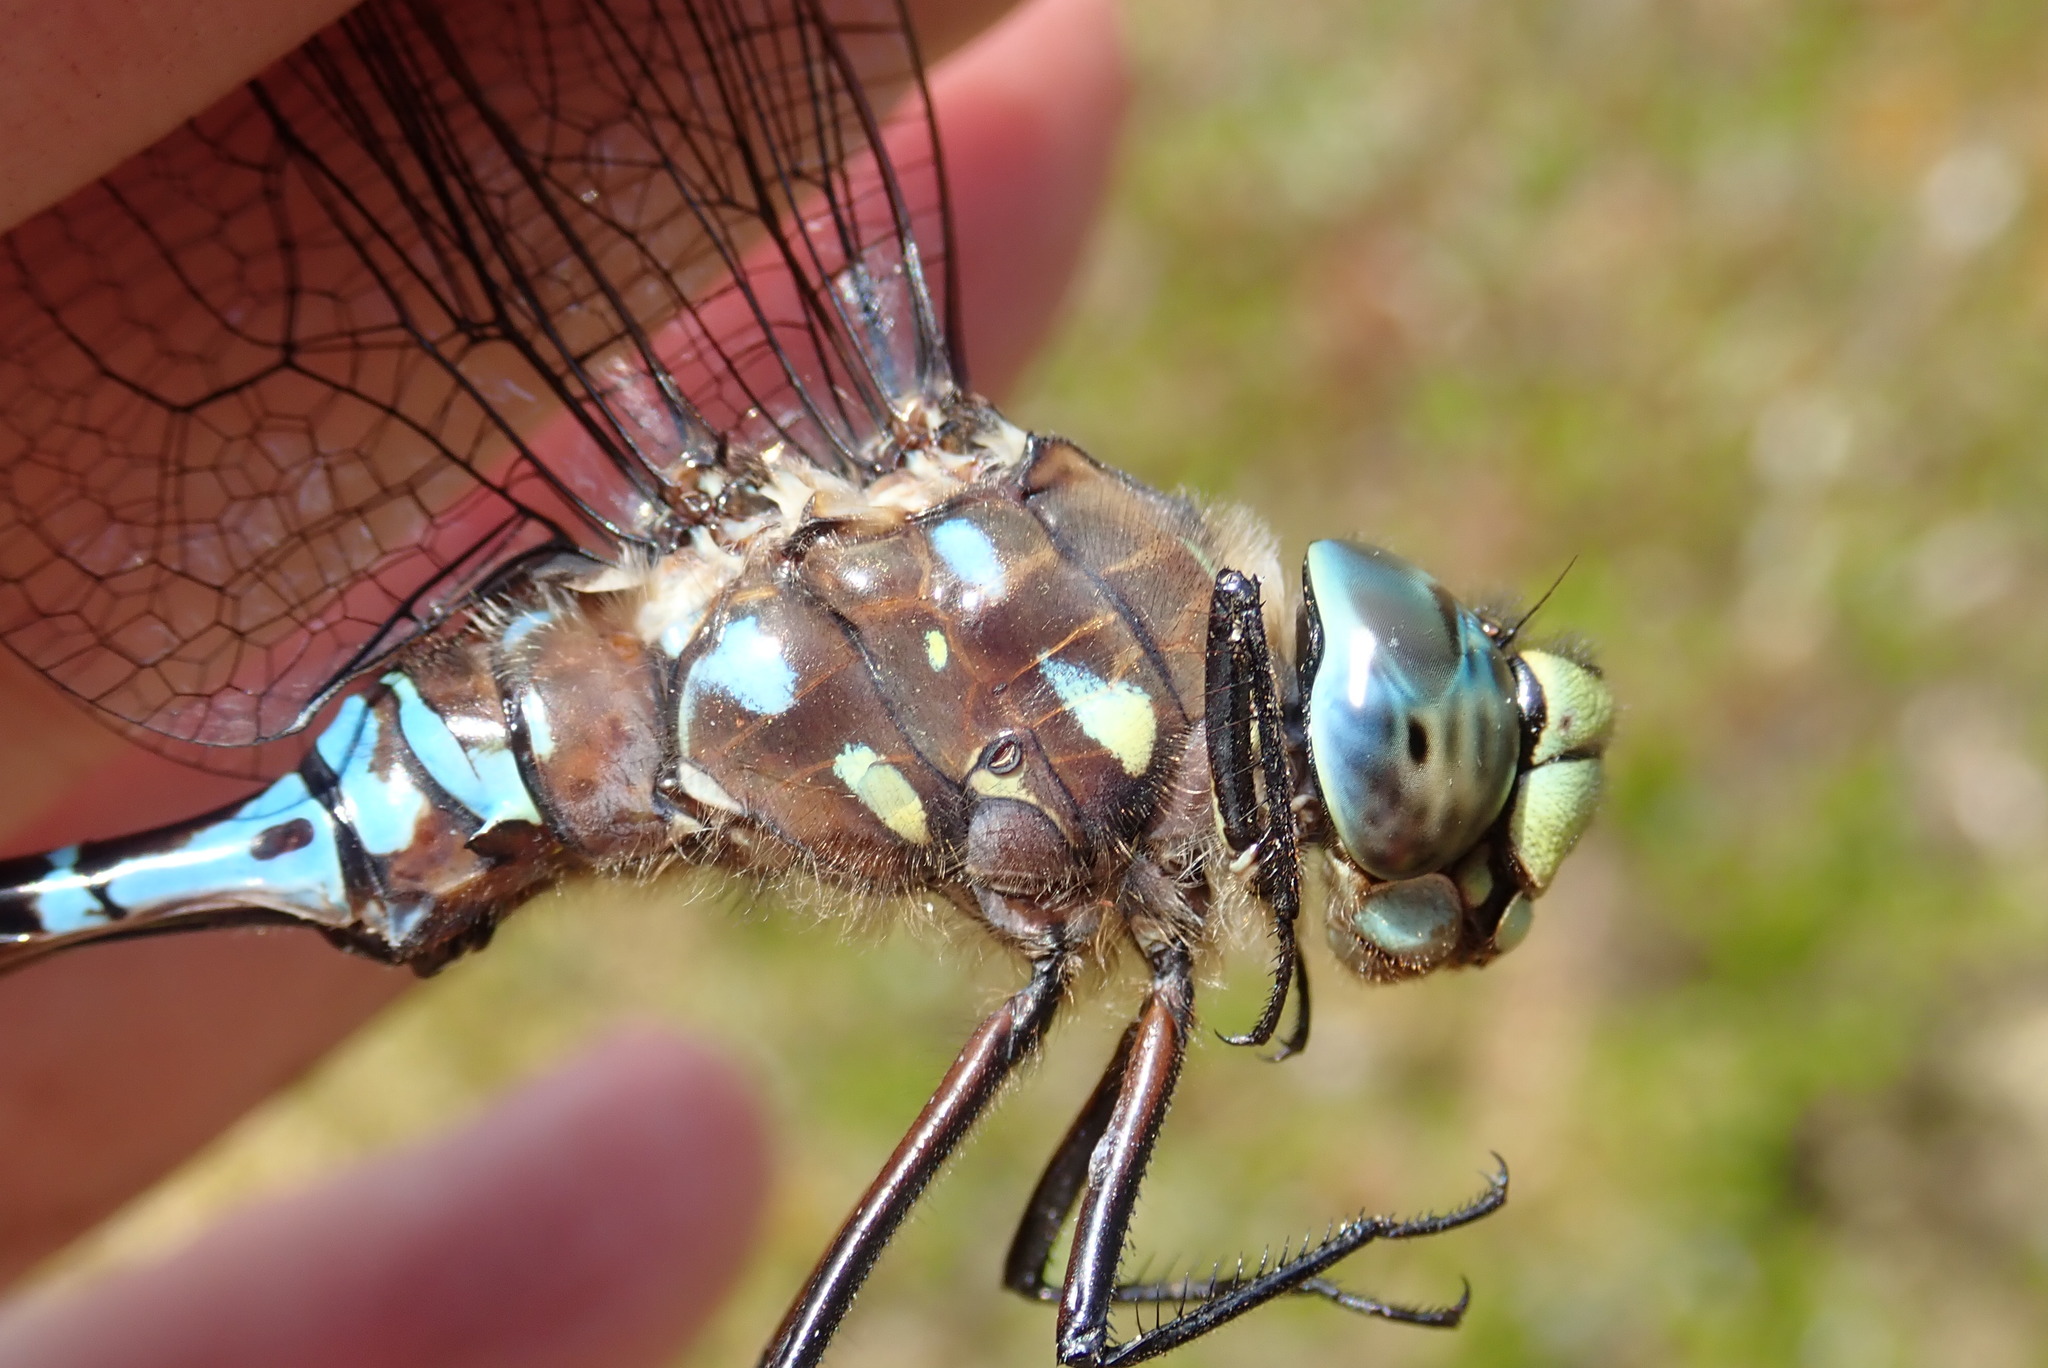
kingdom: Animalia
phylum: Arthropoda
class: Insecta
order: Odonata
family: Aeshnidae
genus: Aeshna
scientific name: Aeshna interrupta
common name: Variable darner
